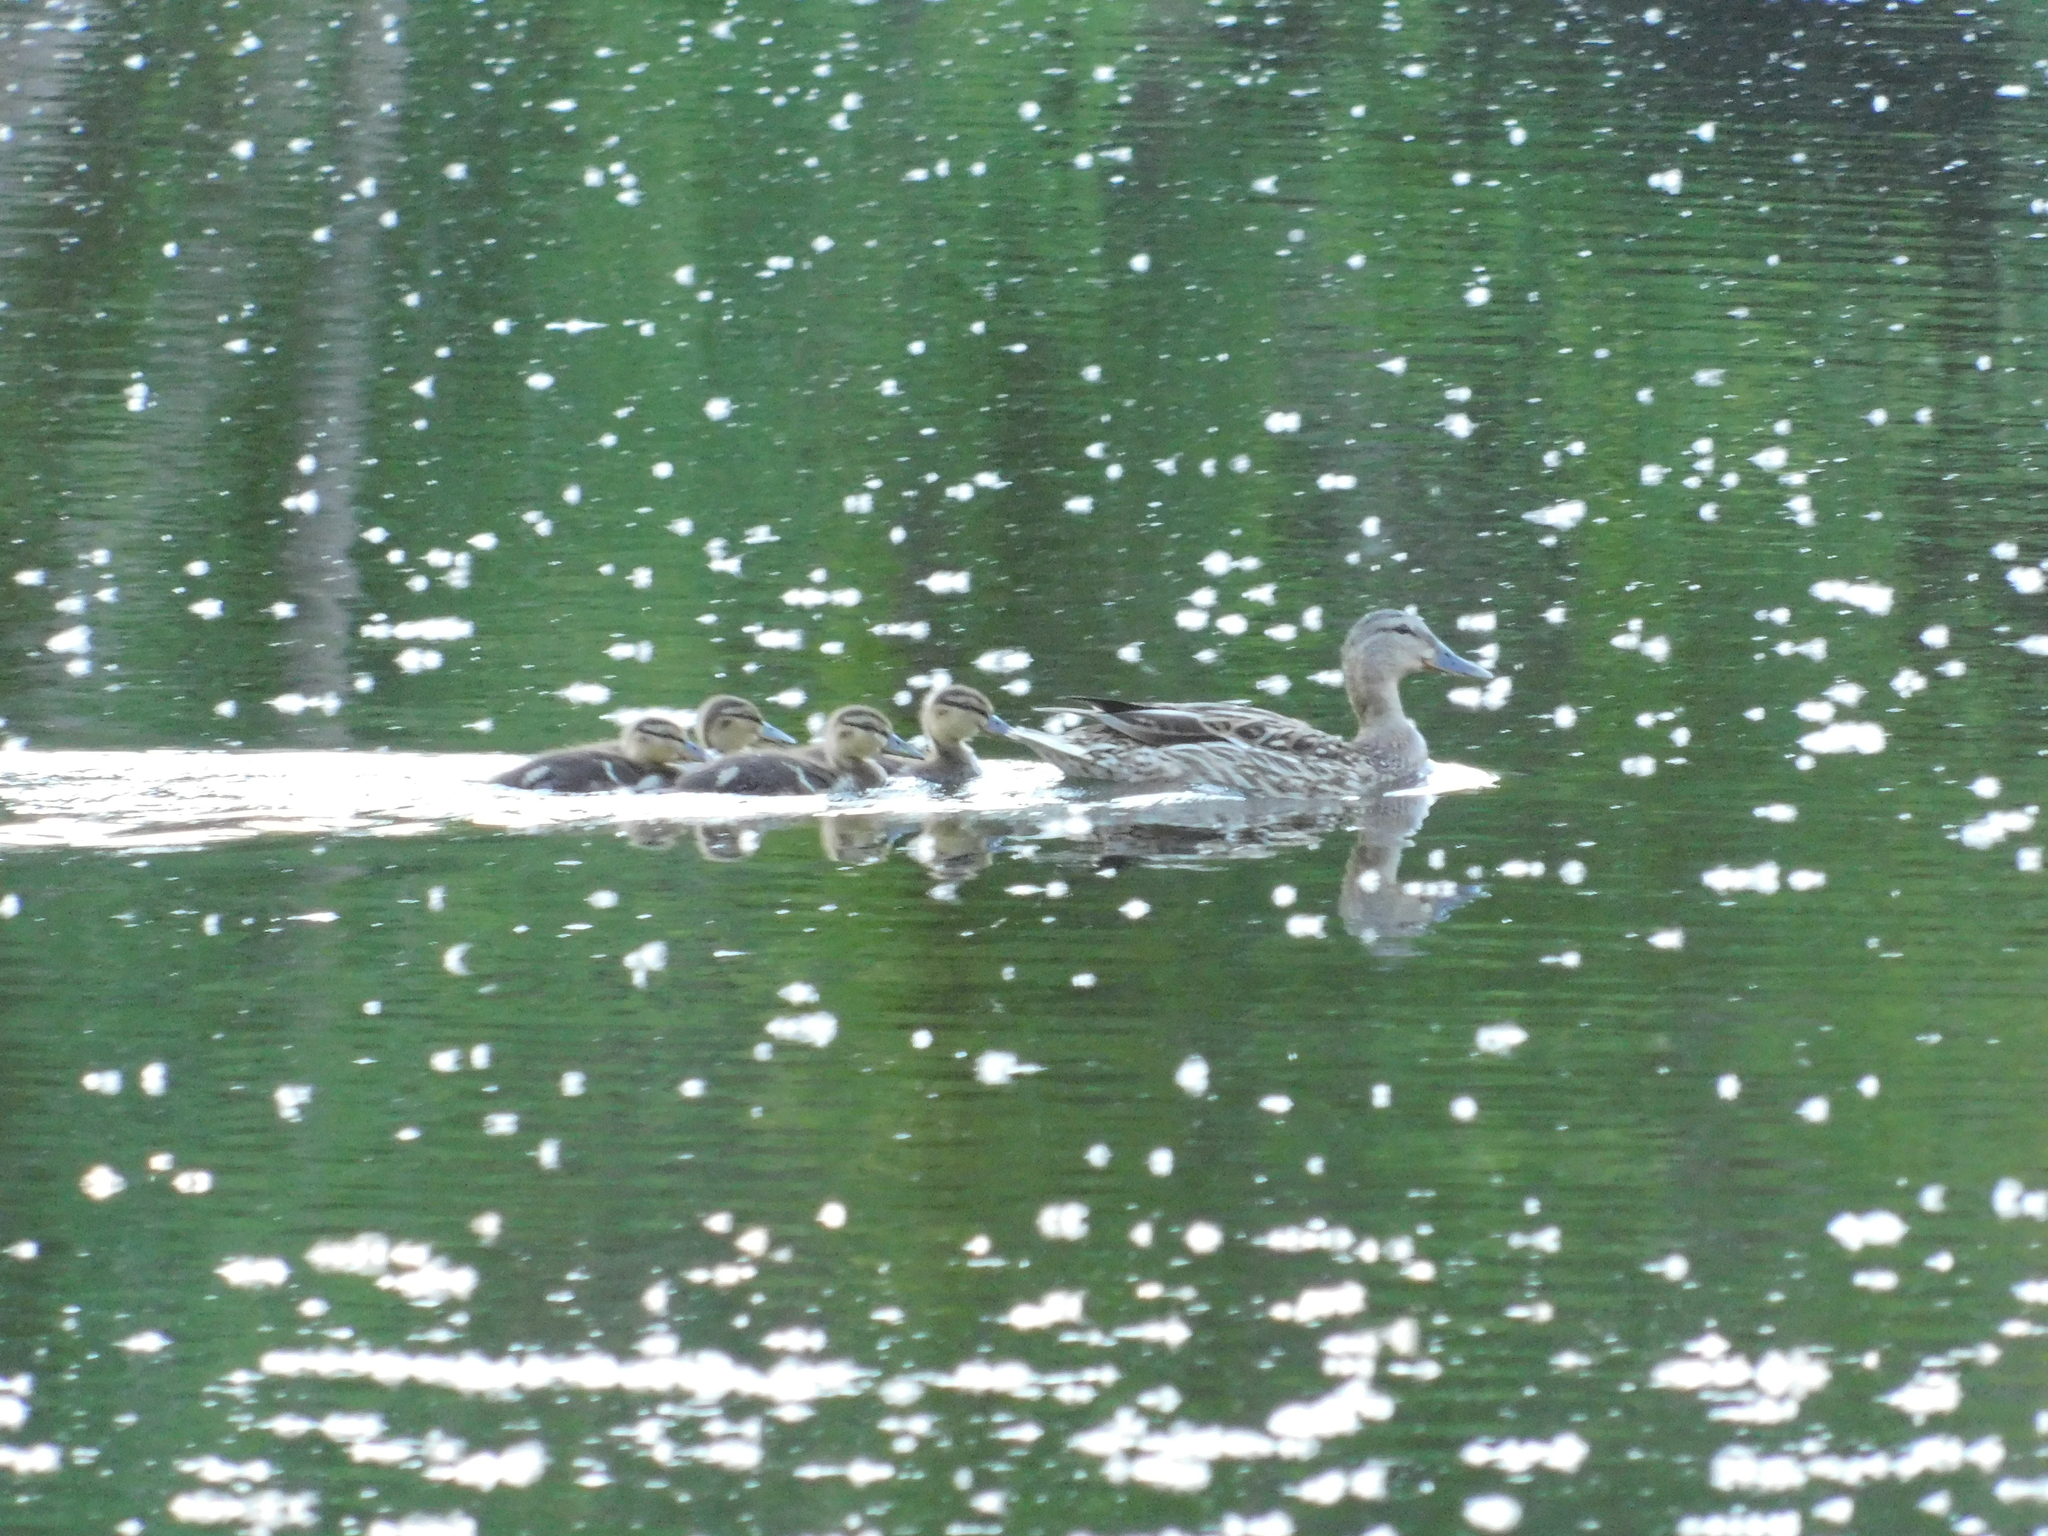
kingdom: Animalia
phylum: Chordata
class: Aves
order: Anseriformes
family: Anatidae
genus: Anas
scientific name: Anas platyrhynchos
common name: Mallard
